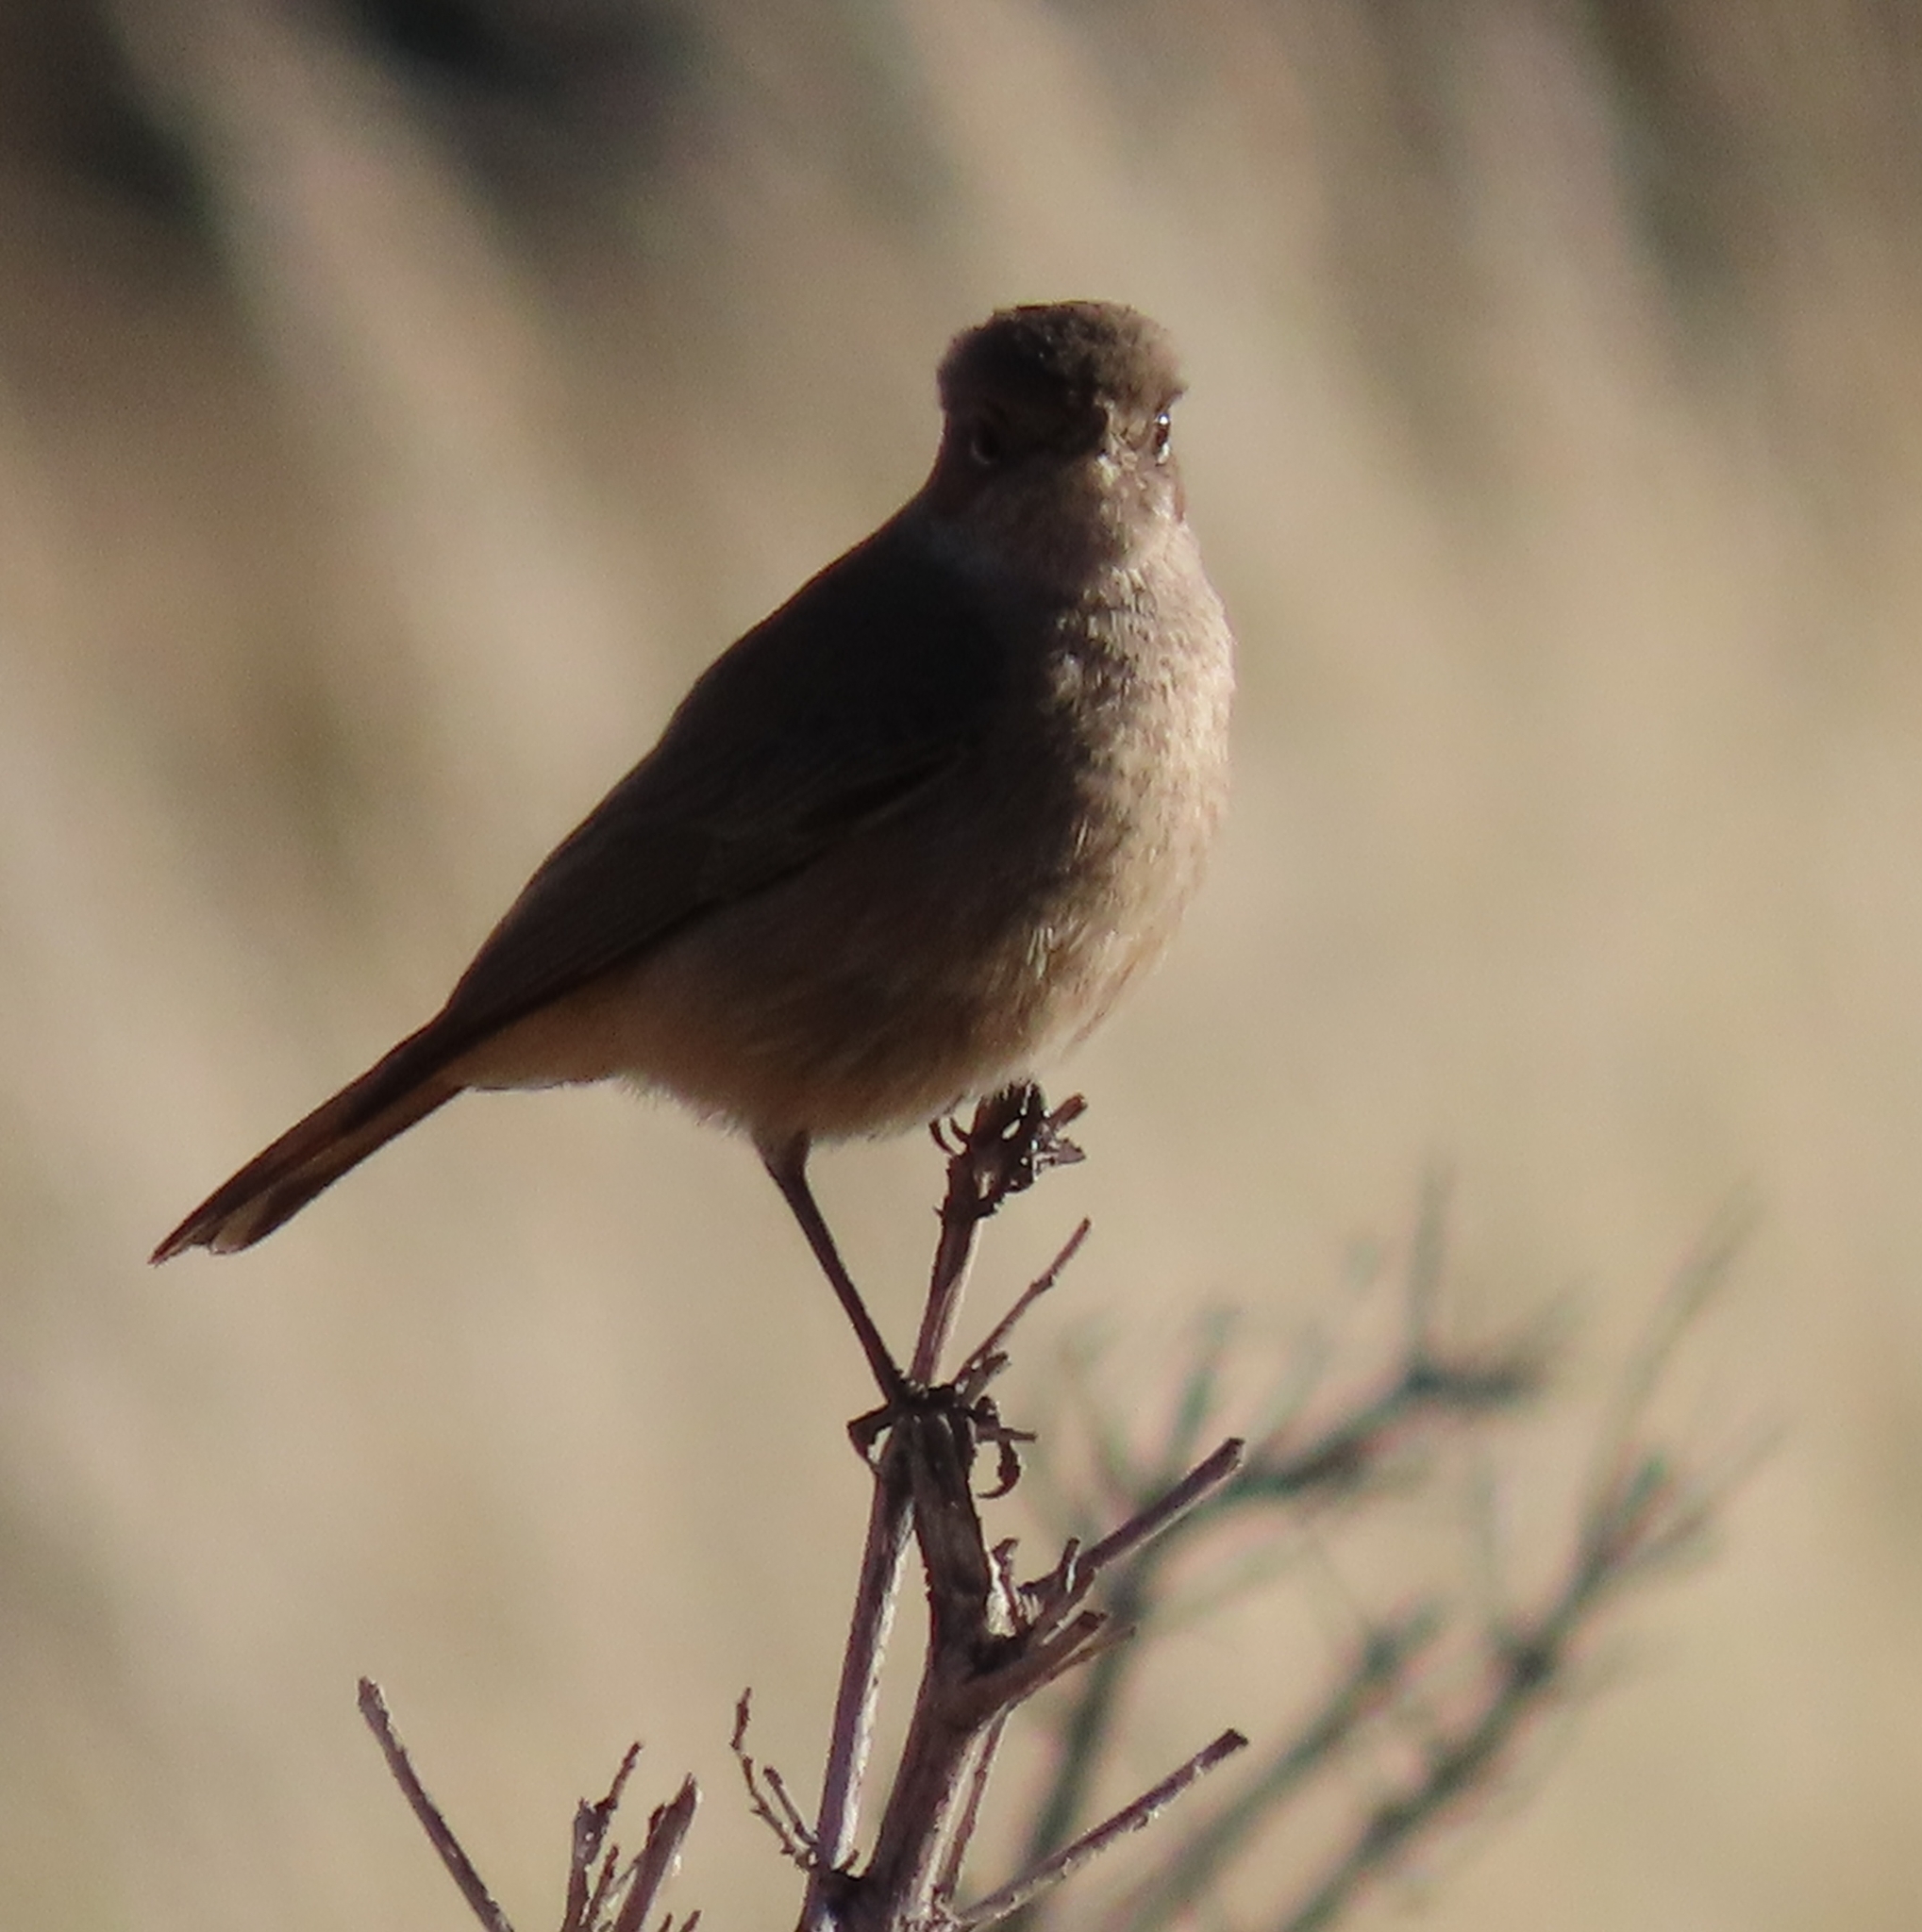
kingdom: Animalia
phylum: Chordata
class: Aves
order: Passeriformes
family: Muscicapidae
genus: Oenanthe
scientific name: Oenanthe familiaris
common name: Familiar chat
